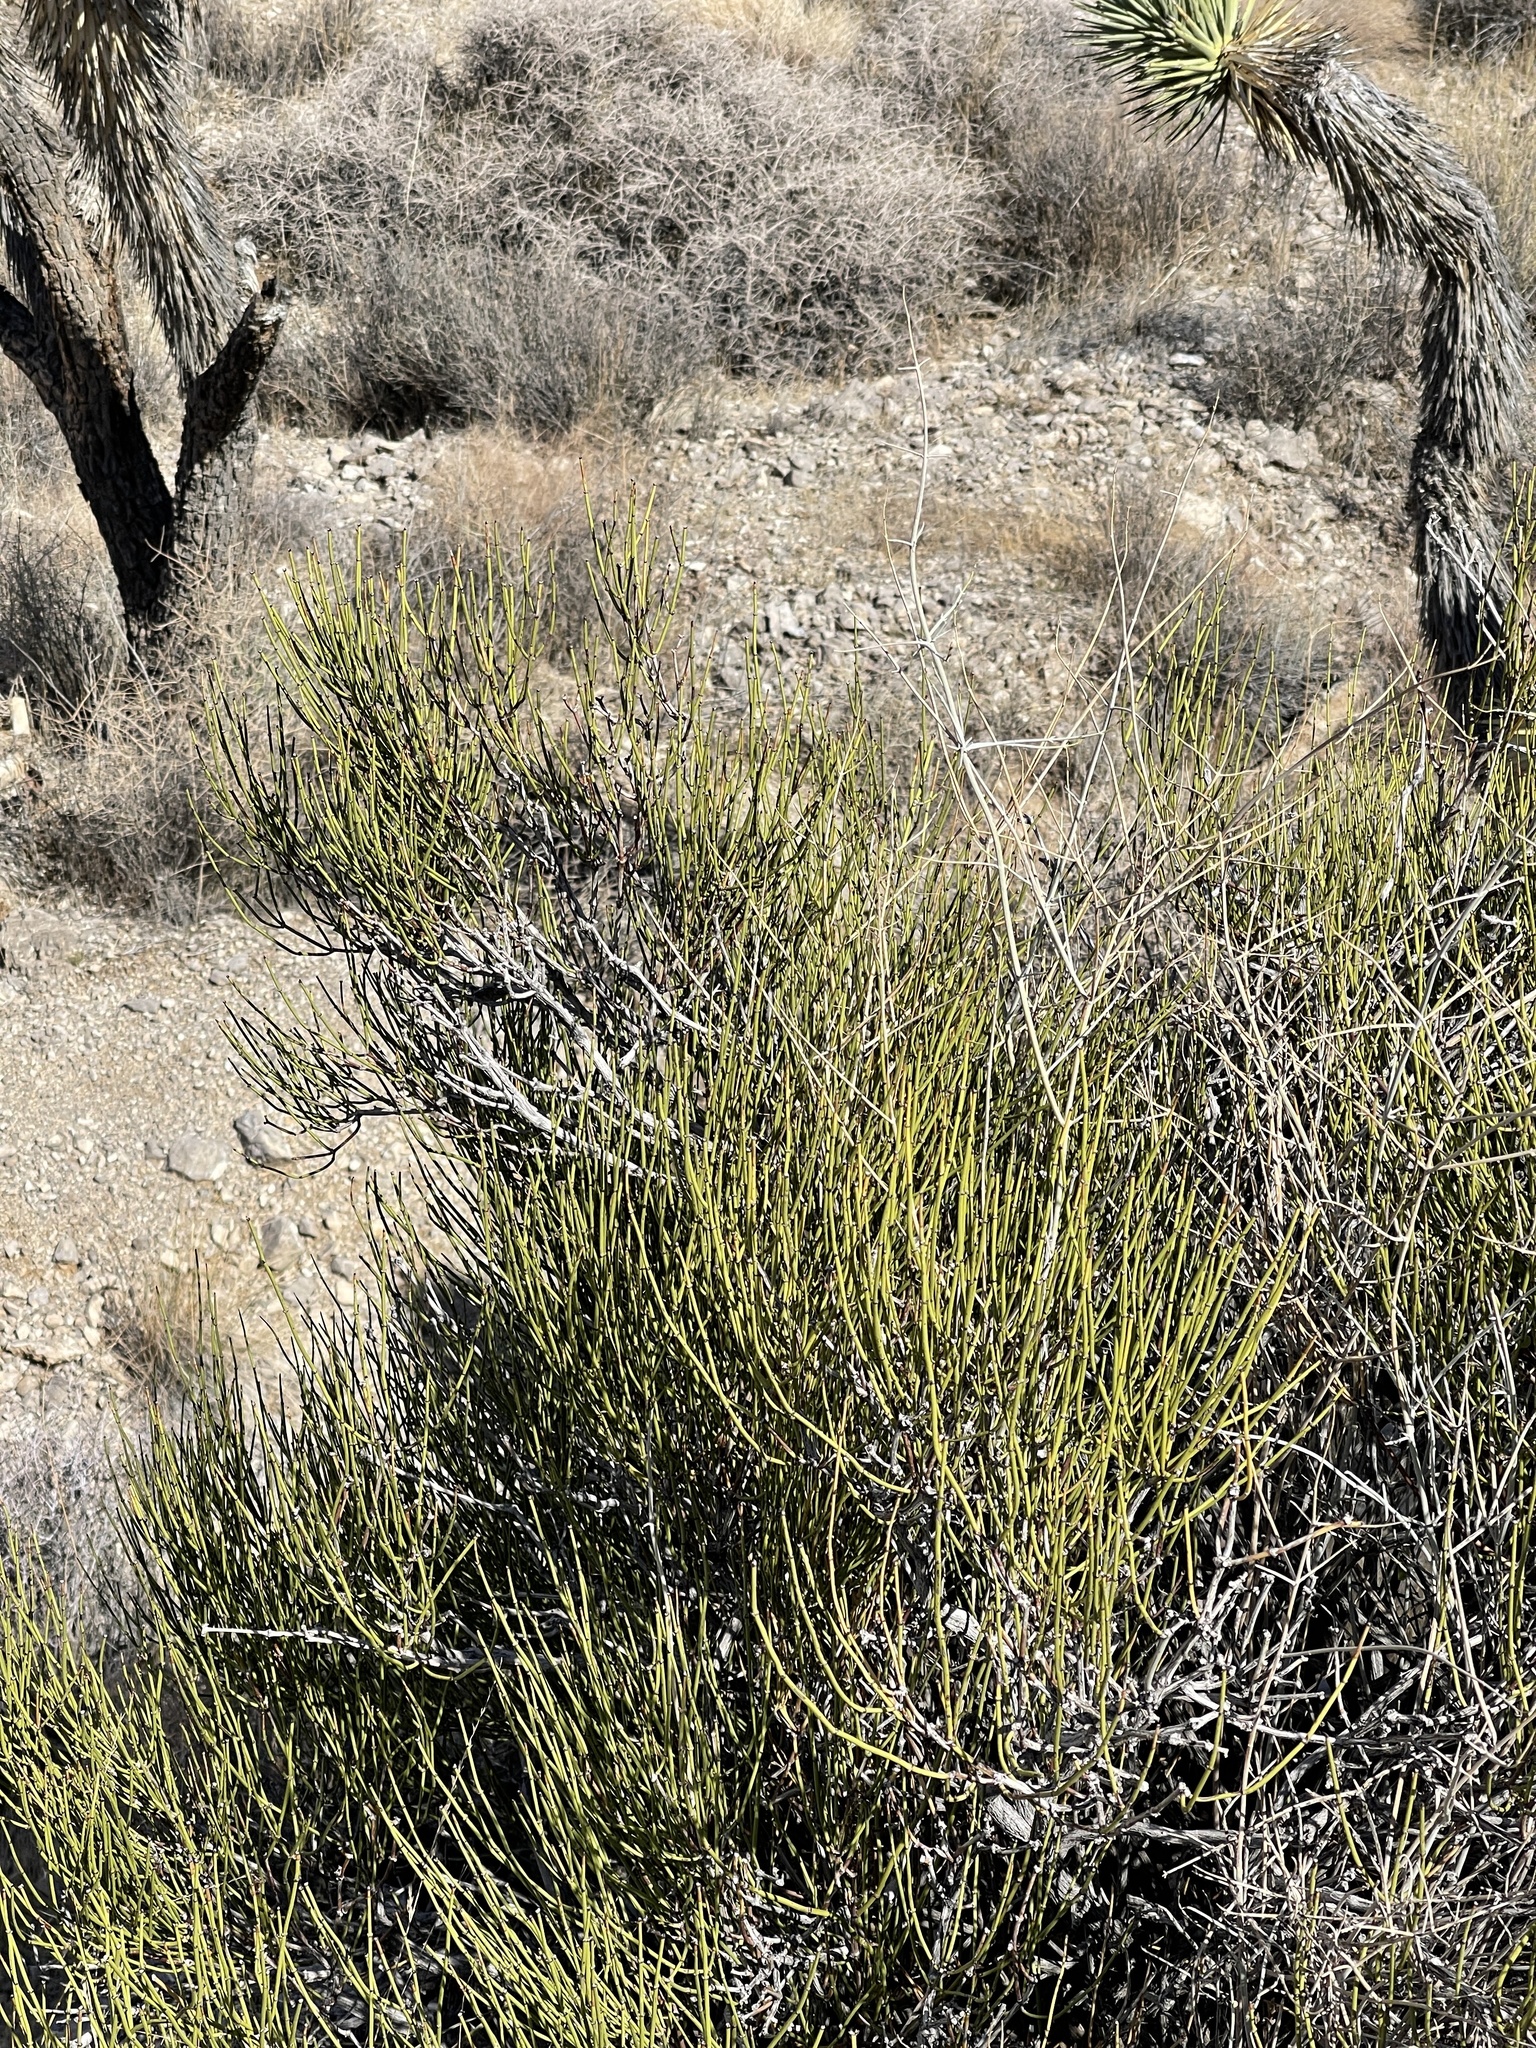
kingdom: Plantae
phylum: Tracheophyta
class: Gnetopsida
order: Ephedrales
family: Ephedraceae
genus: Ephedra
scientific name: Ephedra viridis
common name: Green ephedra
